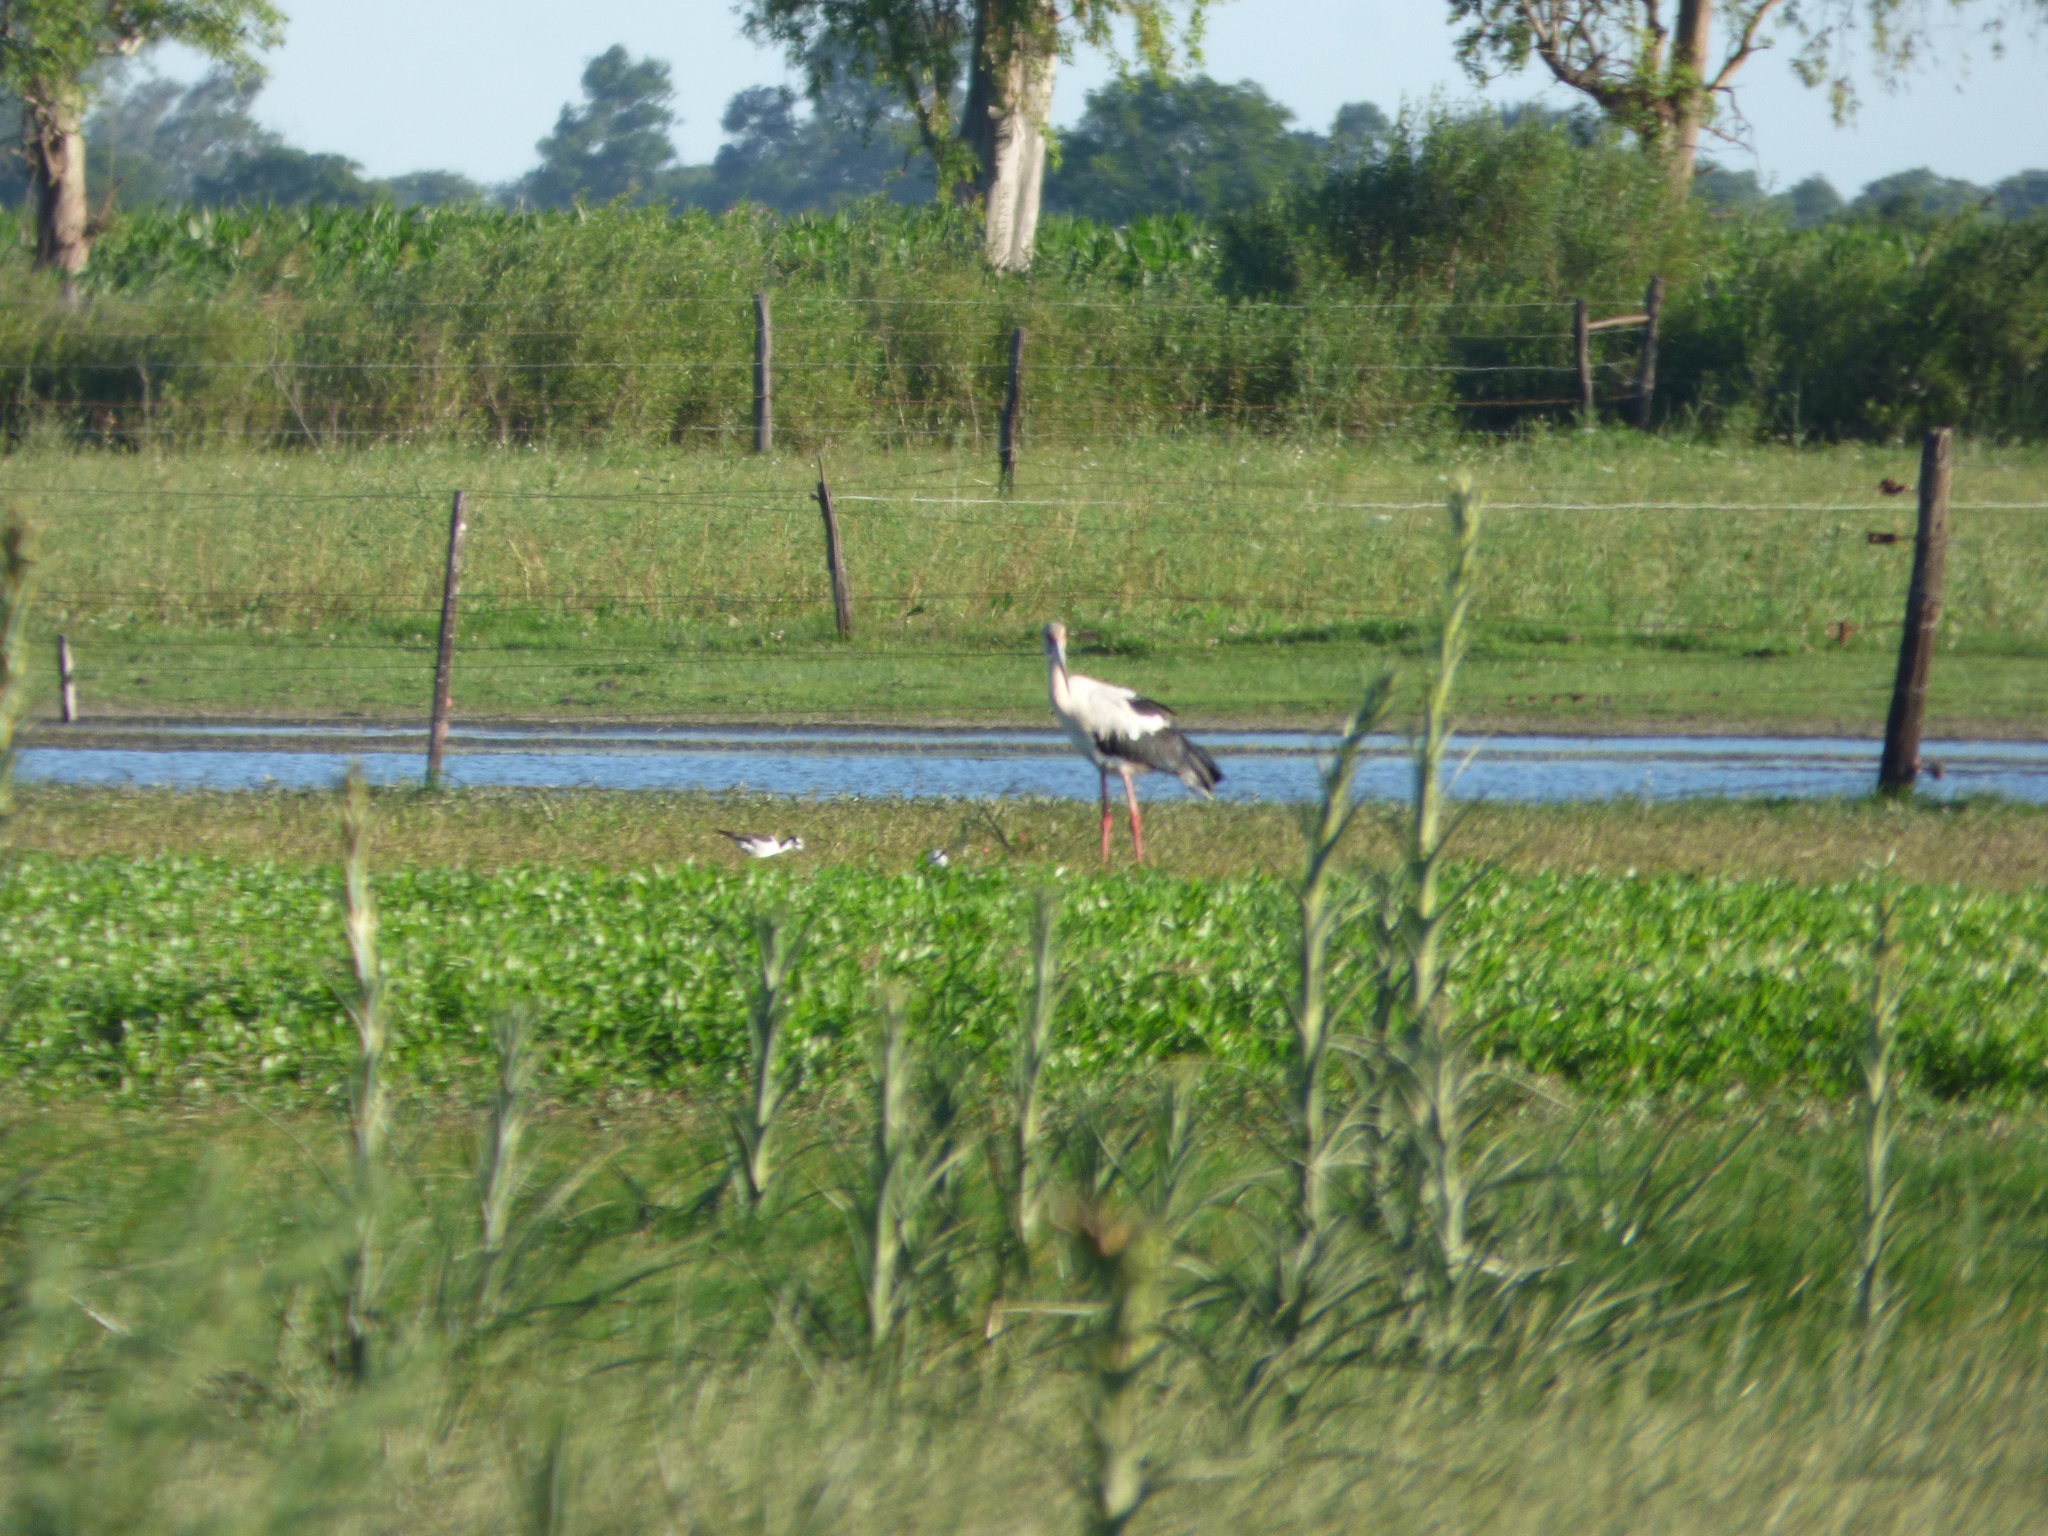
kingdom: Animalia
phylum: Chordata
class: Aves
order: Ciconiiformes
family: Ciconiidae
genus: Ciconia
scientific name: Ciconia maguari
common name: Maguari stork
